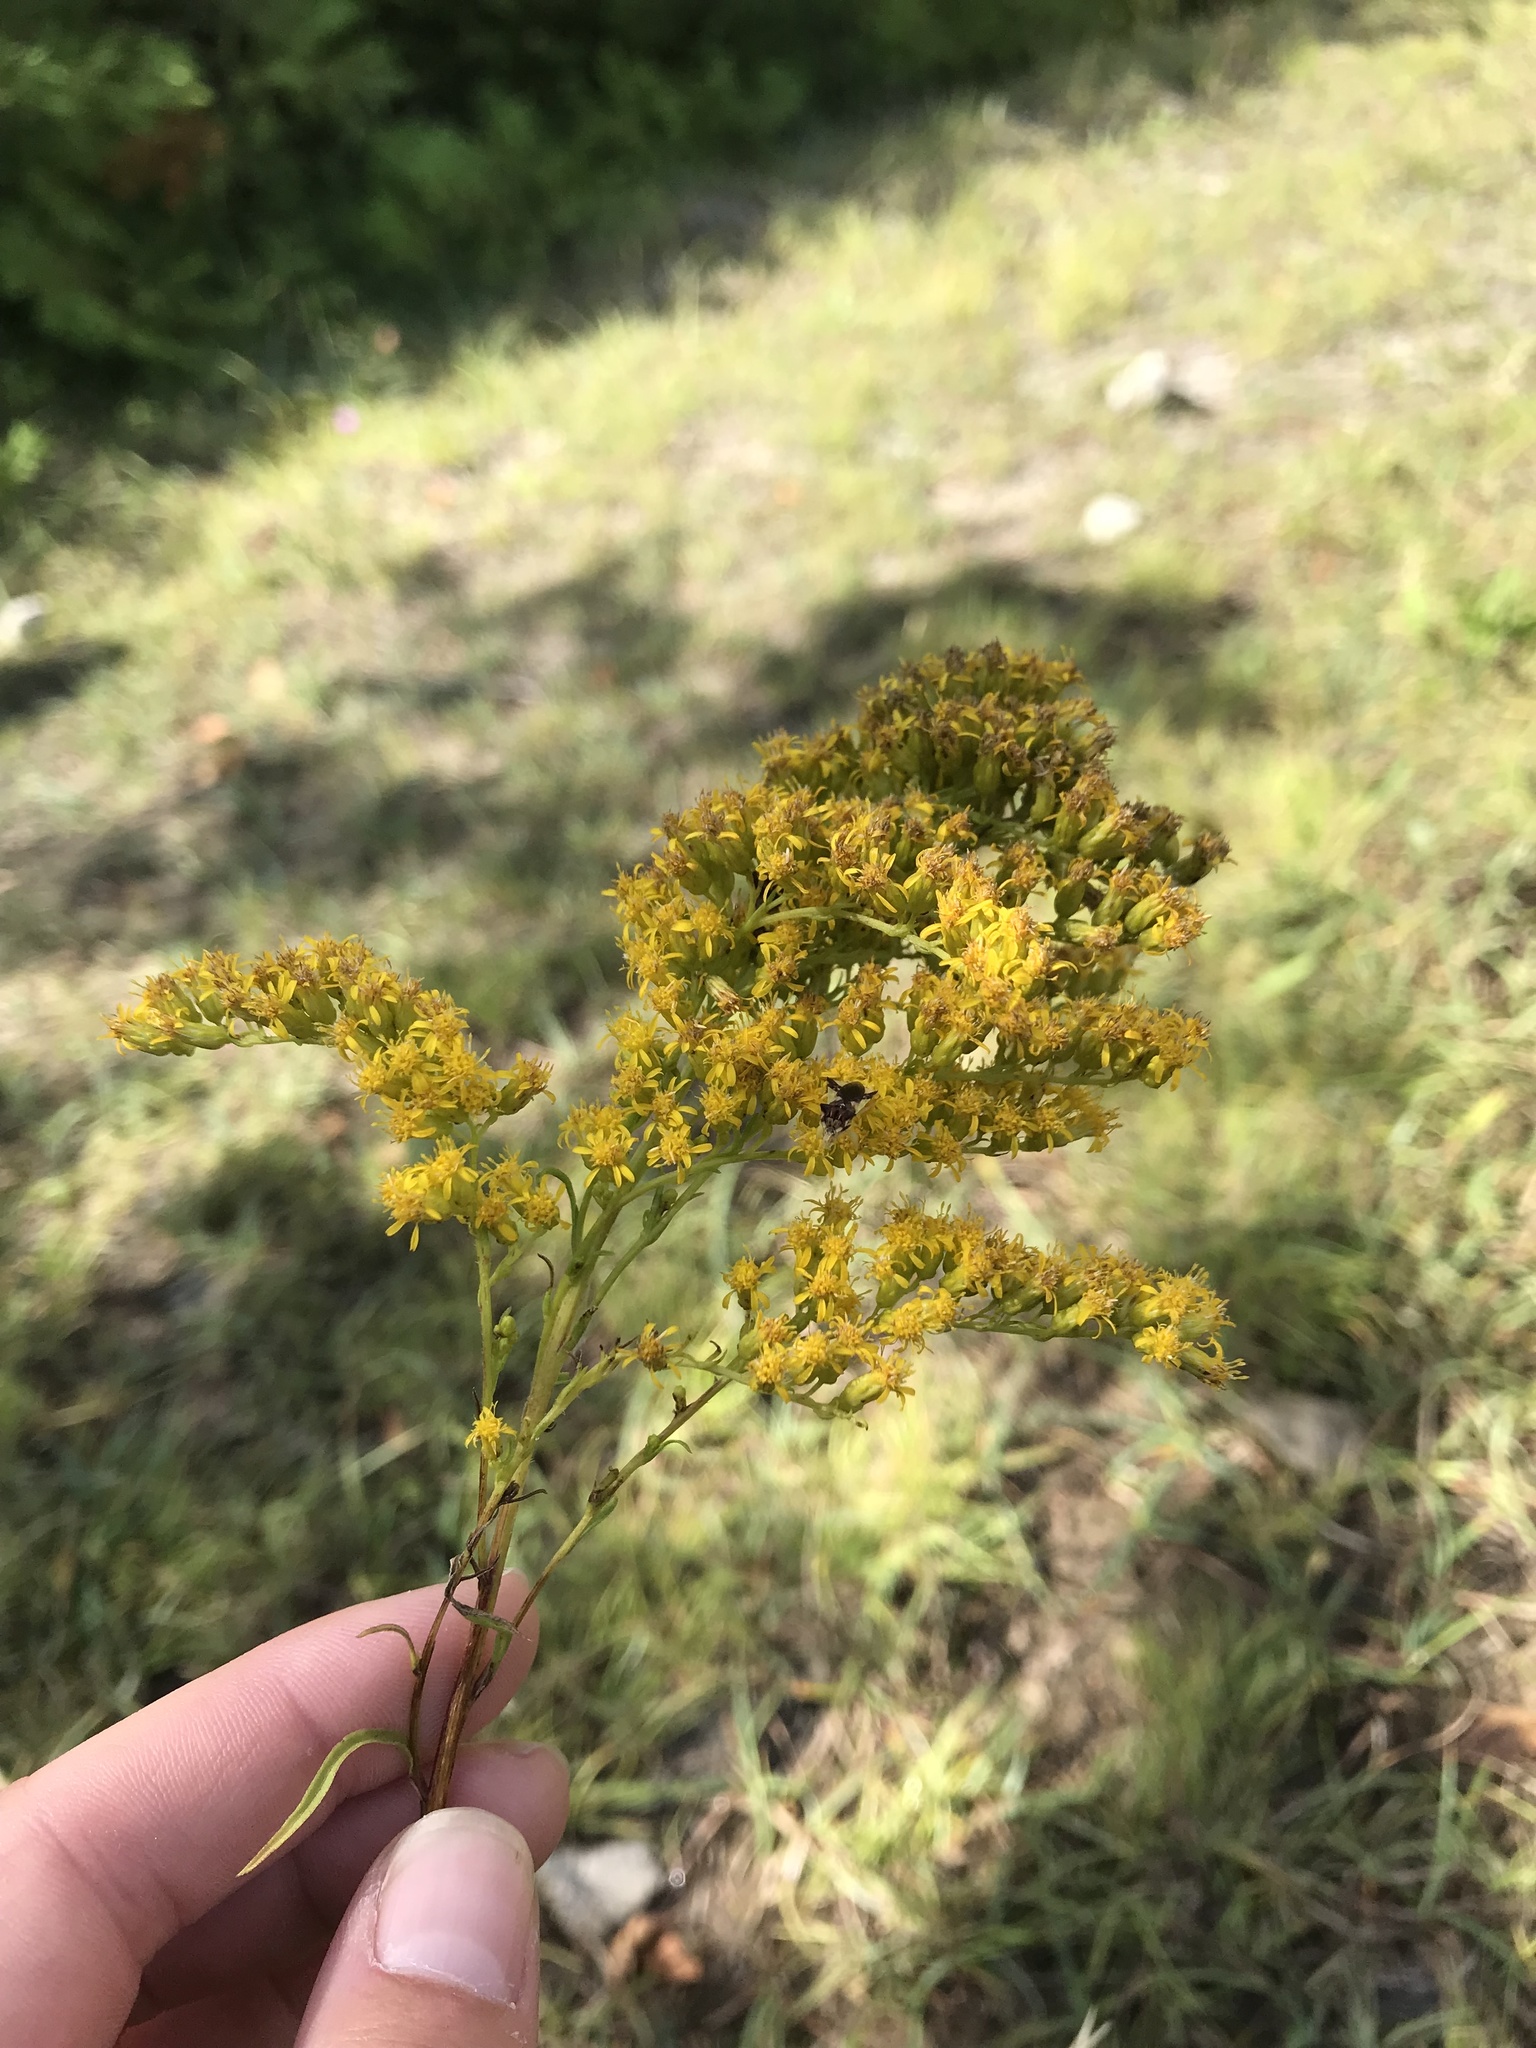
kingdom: Plantae
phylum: Tracheophyta
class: Magnoliopsida
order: Asterales
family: Asteraceae
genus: Solidago
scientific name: Solidago juncea
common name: Early goldenrod
